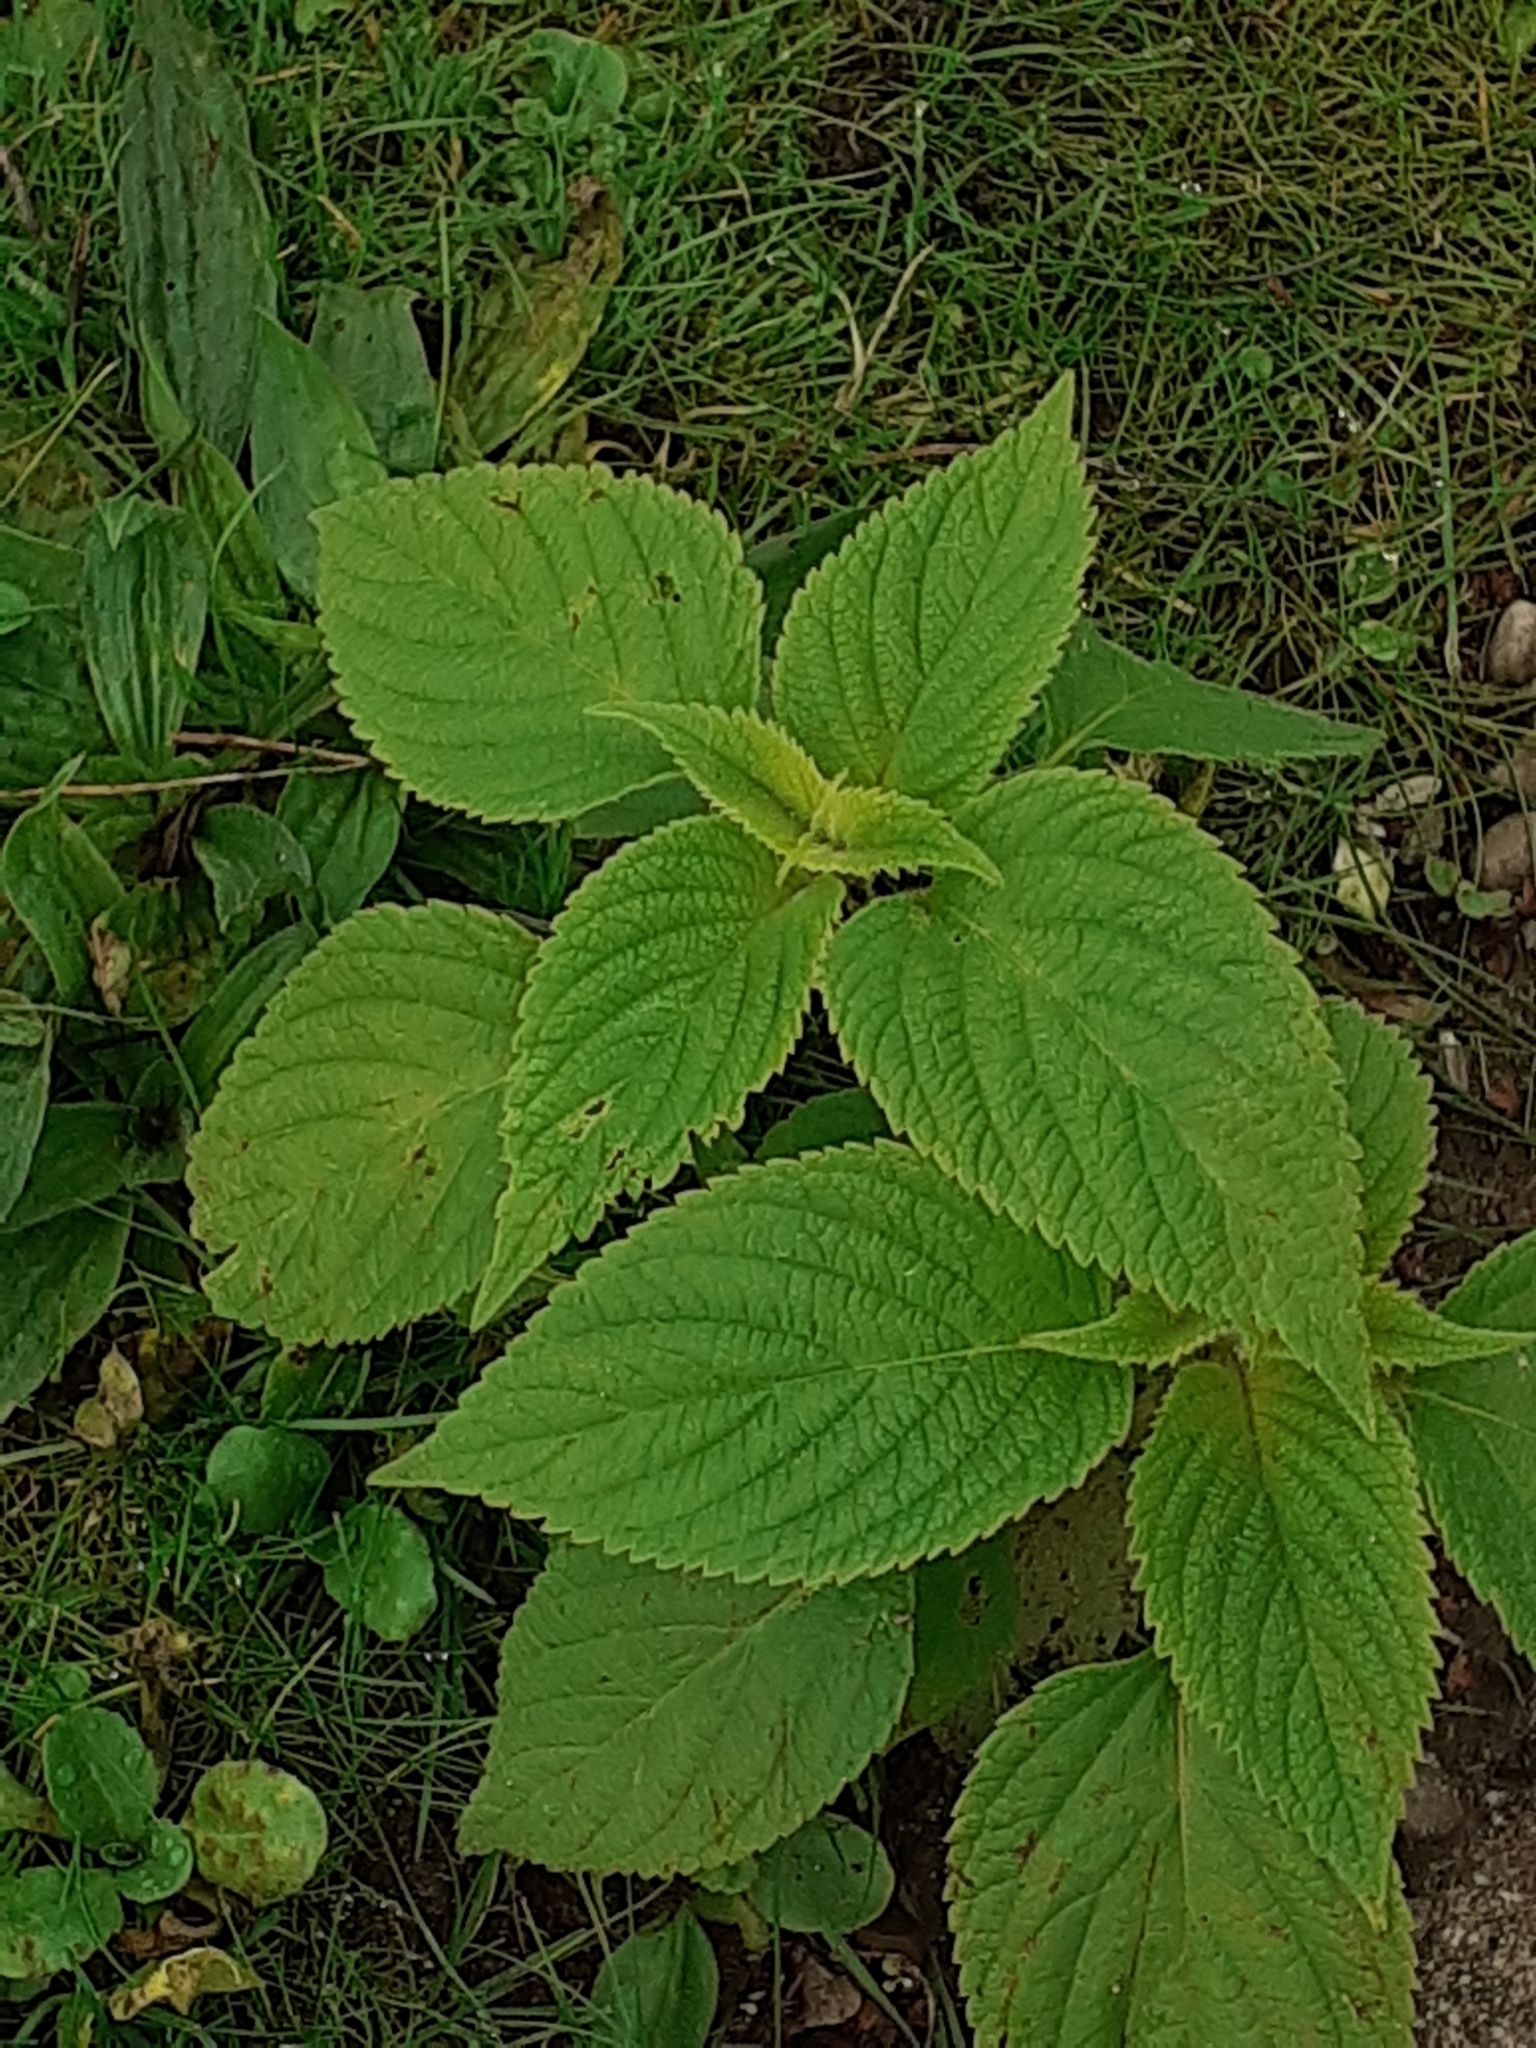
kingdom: Plantae
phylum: Tracheophyta
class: Magnoliopsida
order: Lamiales
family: Lamiaceae
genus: Salvia
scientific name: Salvia hispanica
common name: Chia
